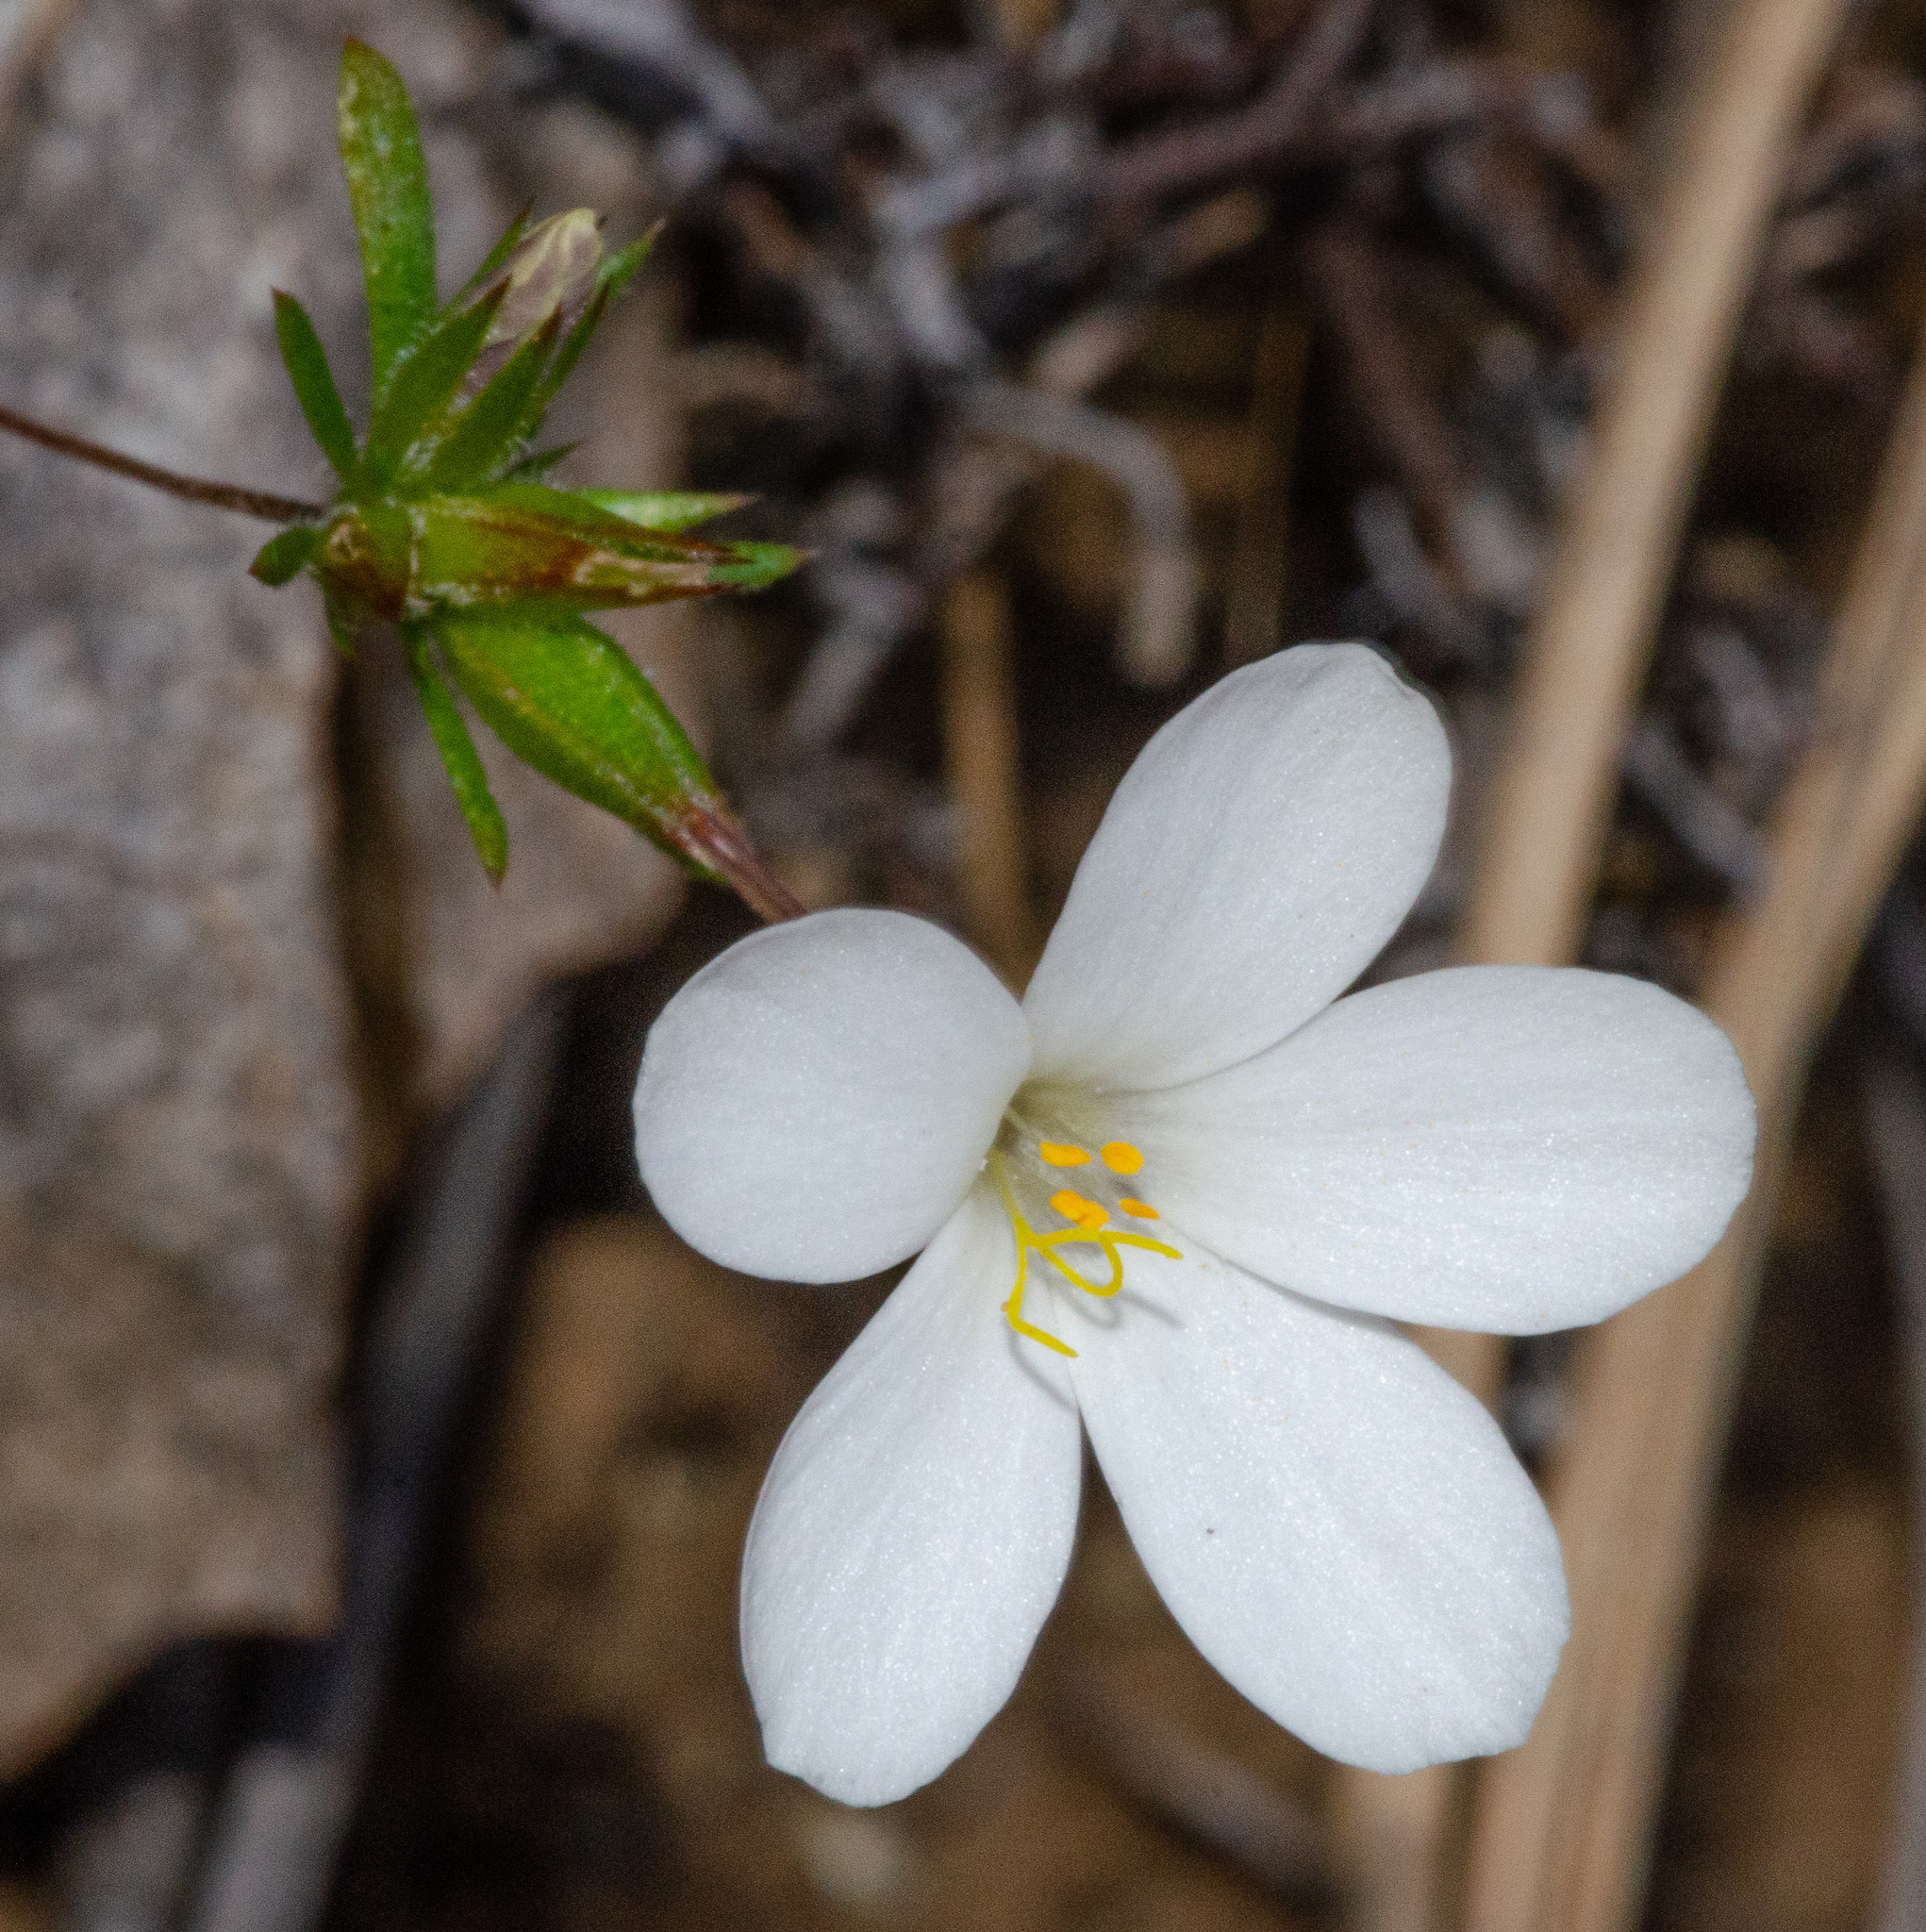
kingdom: Plantae
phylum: Tracheophyta
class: Magnoliopsida
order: Ericales
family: Polemoniaceae
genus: Leptosiphon
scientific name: Leptosiphon androsaceus
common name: False babystars
